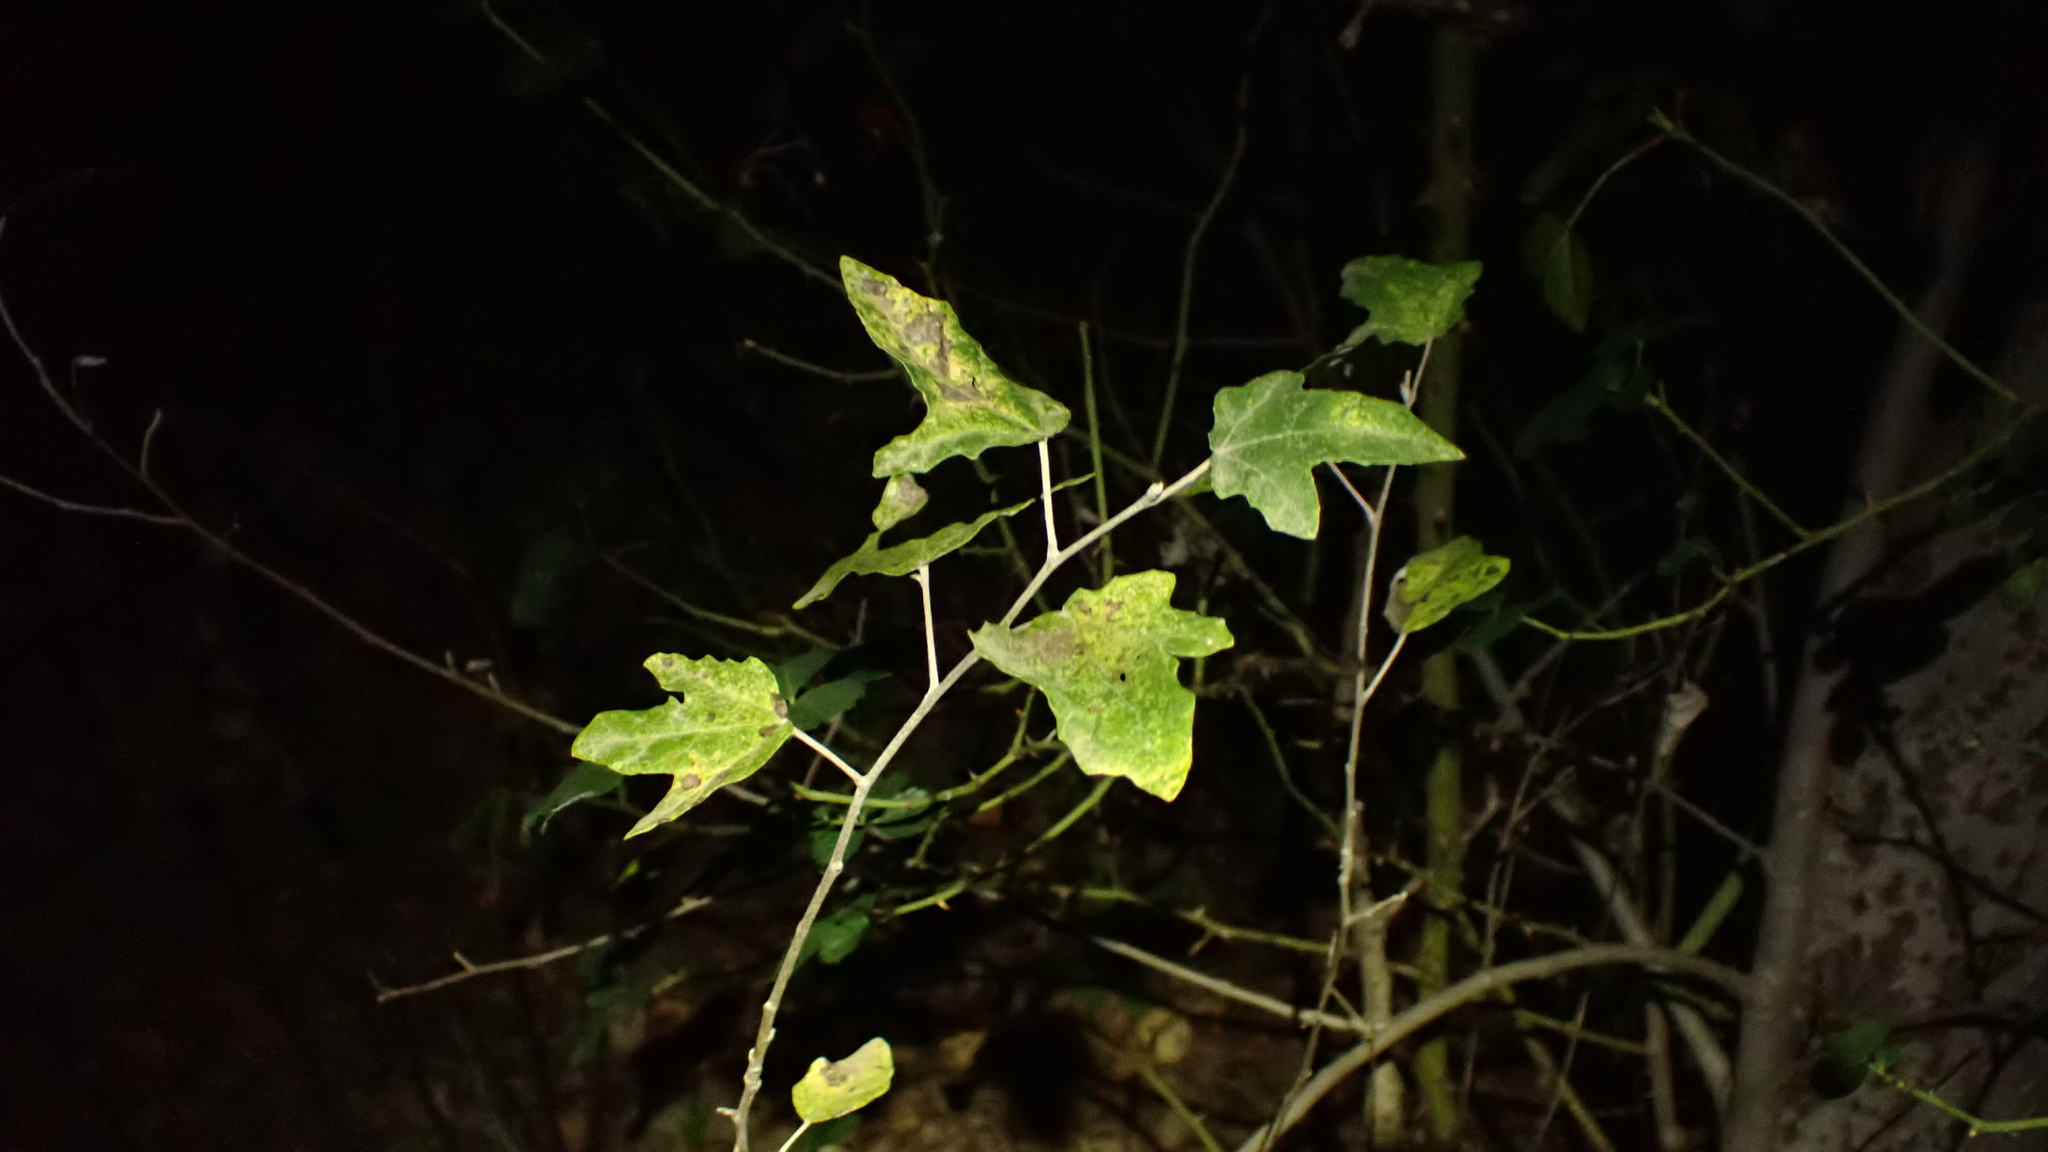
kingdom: Plantae
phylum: Tracheophyta
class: Magnoliopsida
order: Malpighiales
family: Salicaceae
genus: Populus
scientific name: Populus alba
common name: White poplar
